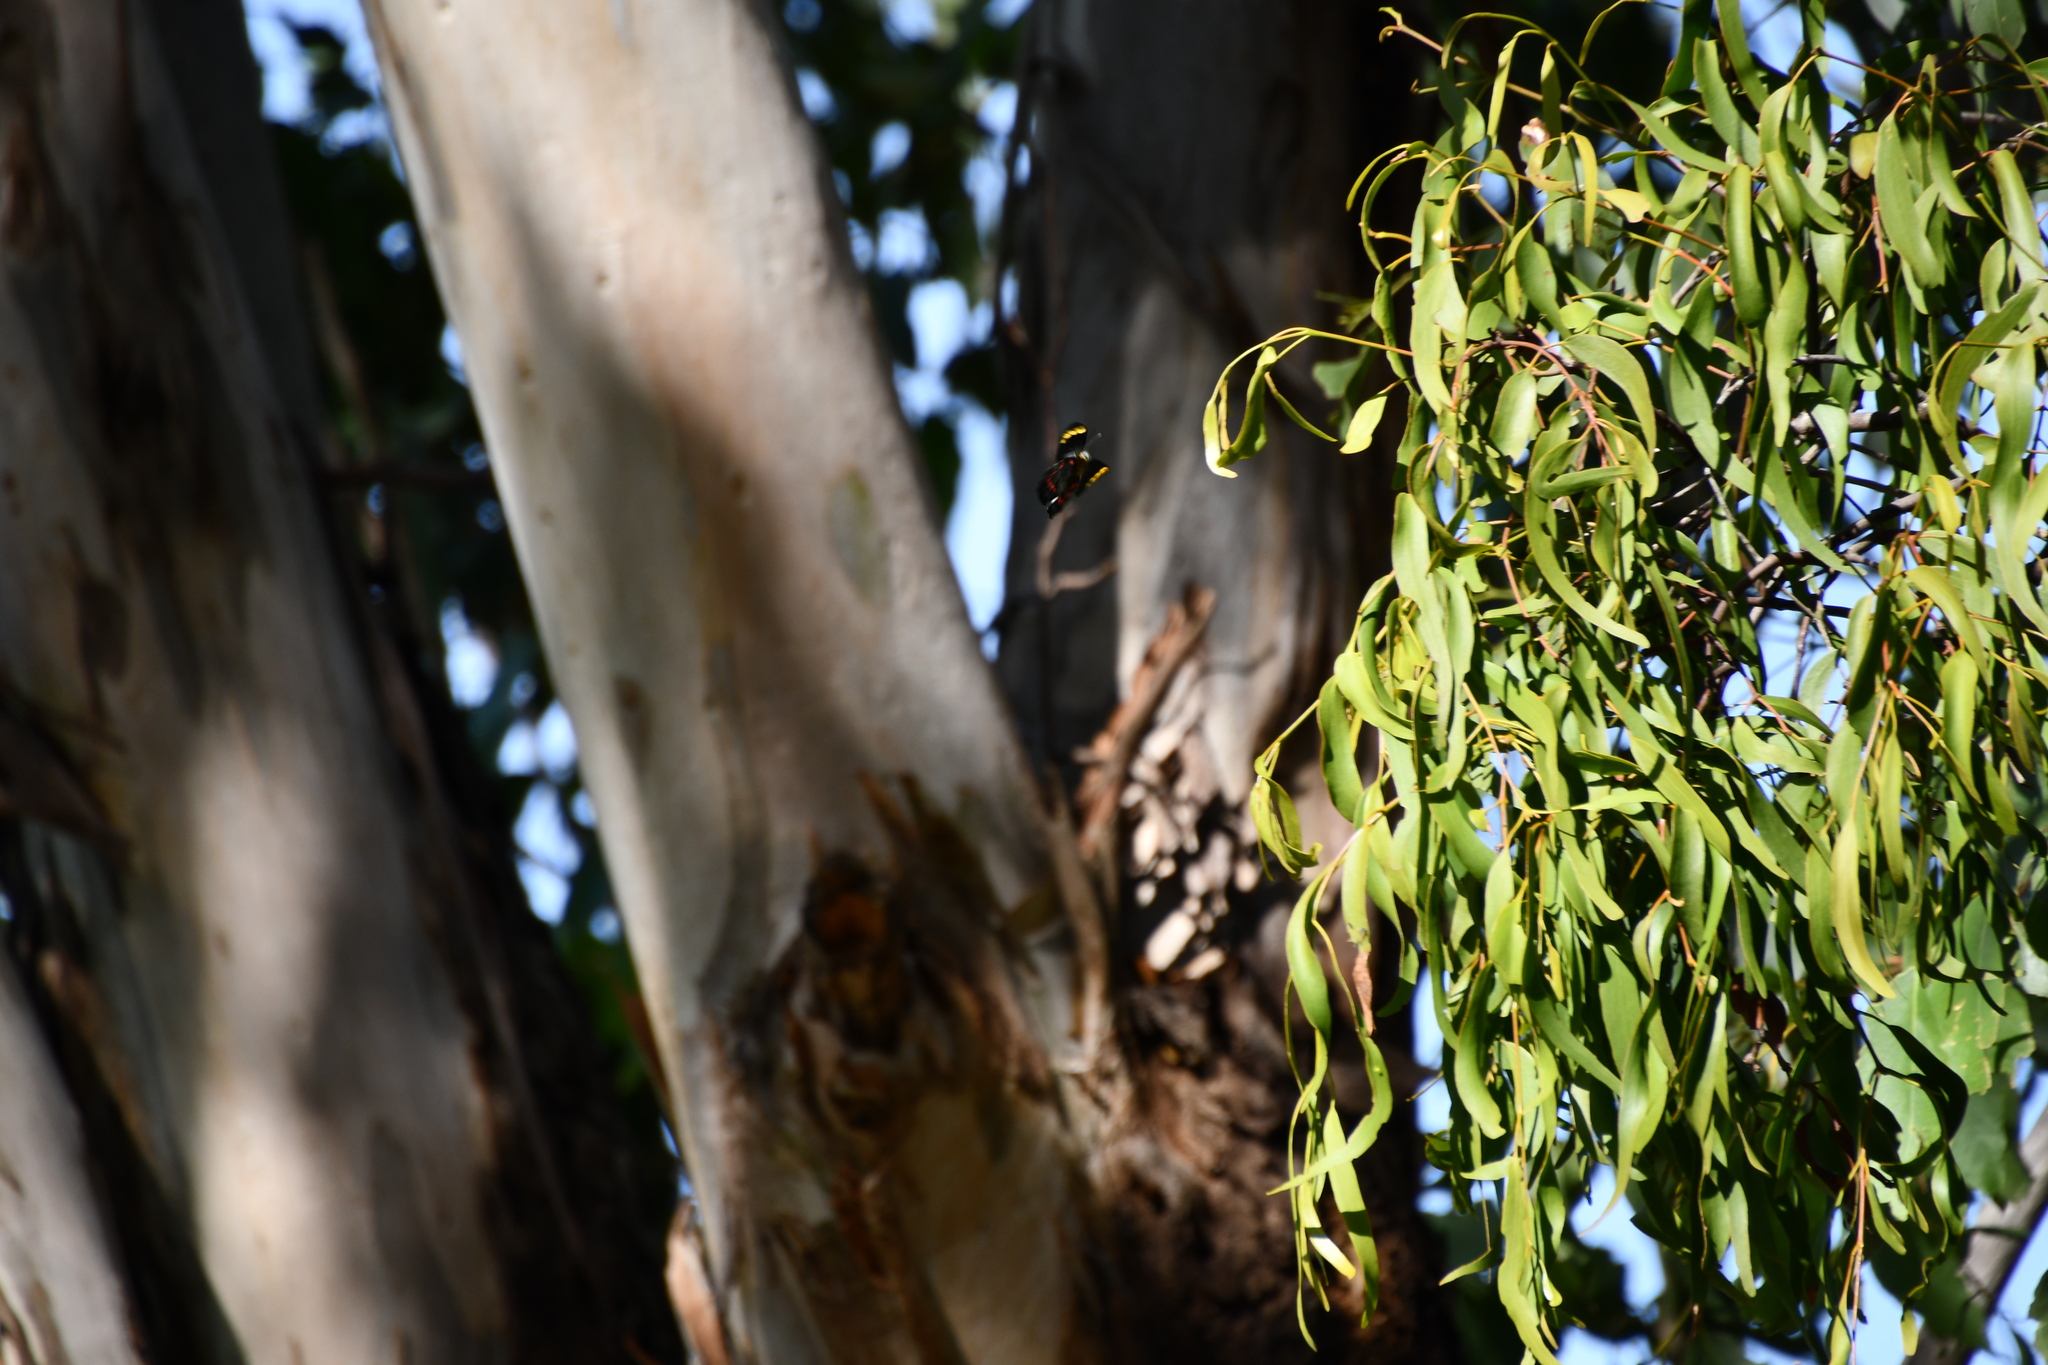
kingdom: Animalia
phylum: Arthropoda
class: Insecta
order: Lepidoptera
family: Pieridae
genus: Delias
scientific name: Delias nigrina
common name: Black jezebel
